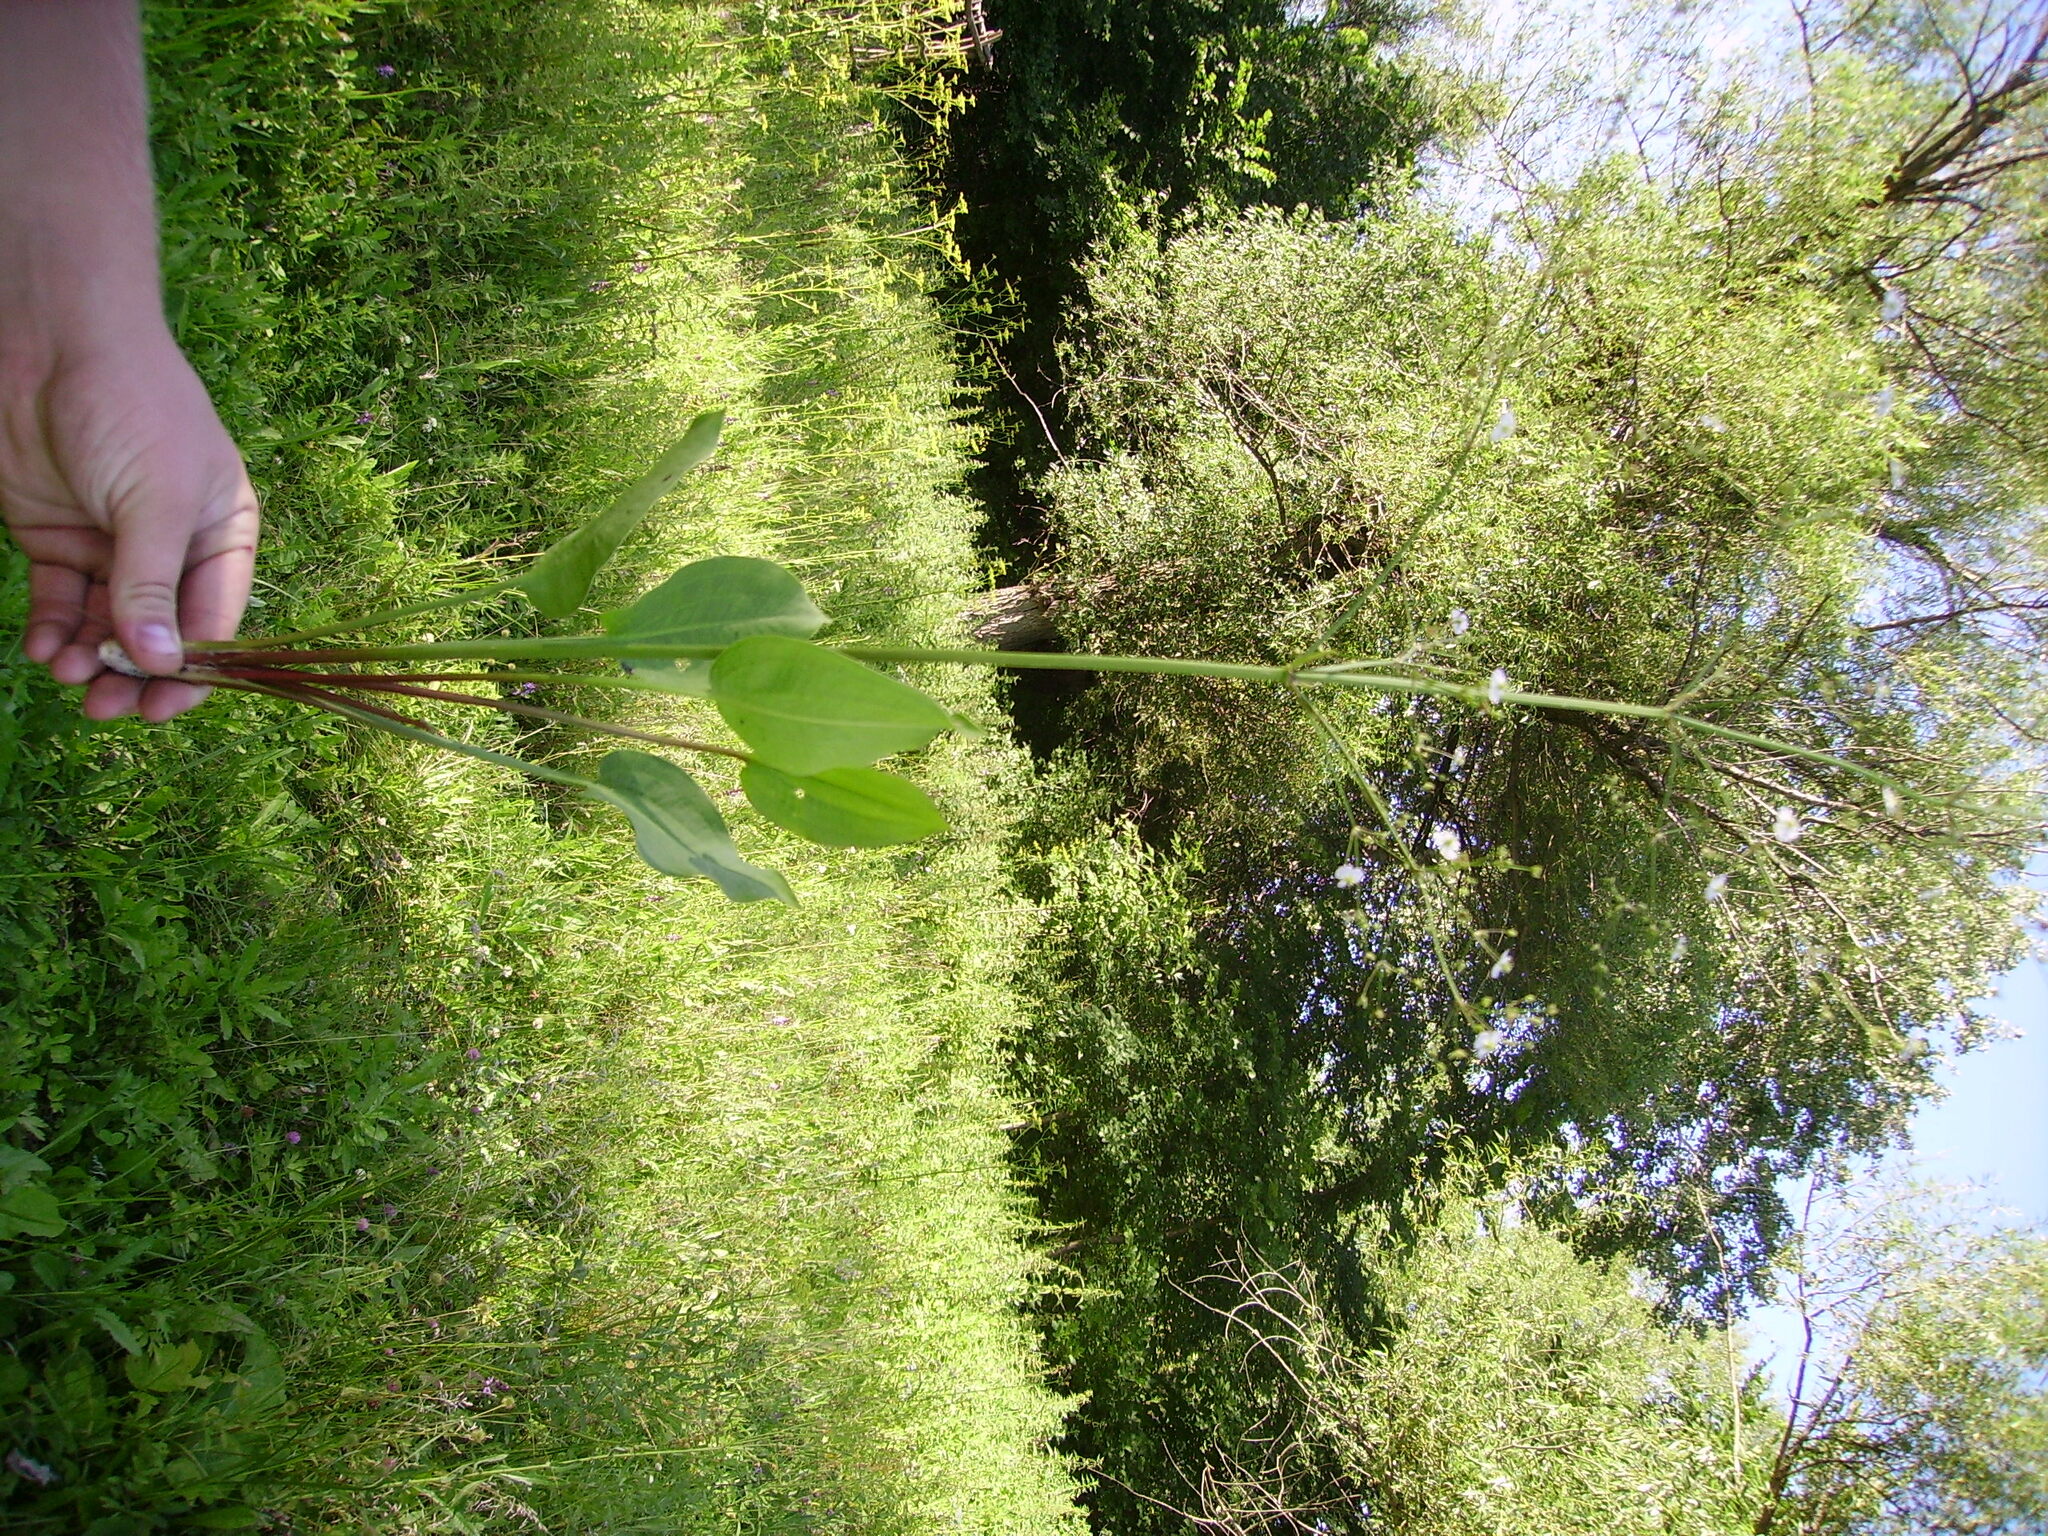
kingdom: Plantae
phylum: Tracheophyta
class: Liliopsida
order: Alismatales
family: Alismataceae
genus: Alisma
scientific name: Alisma plantago-aquatica
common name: Water-plantain
